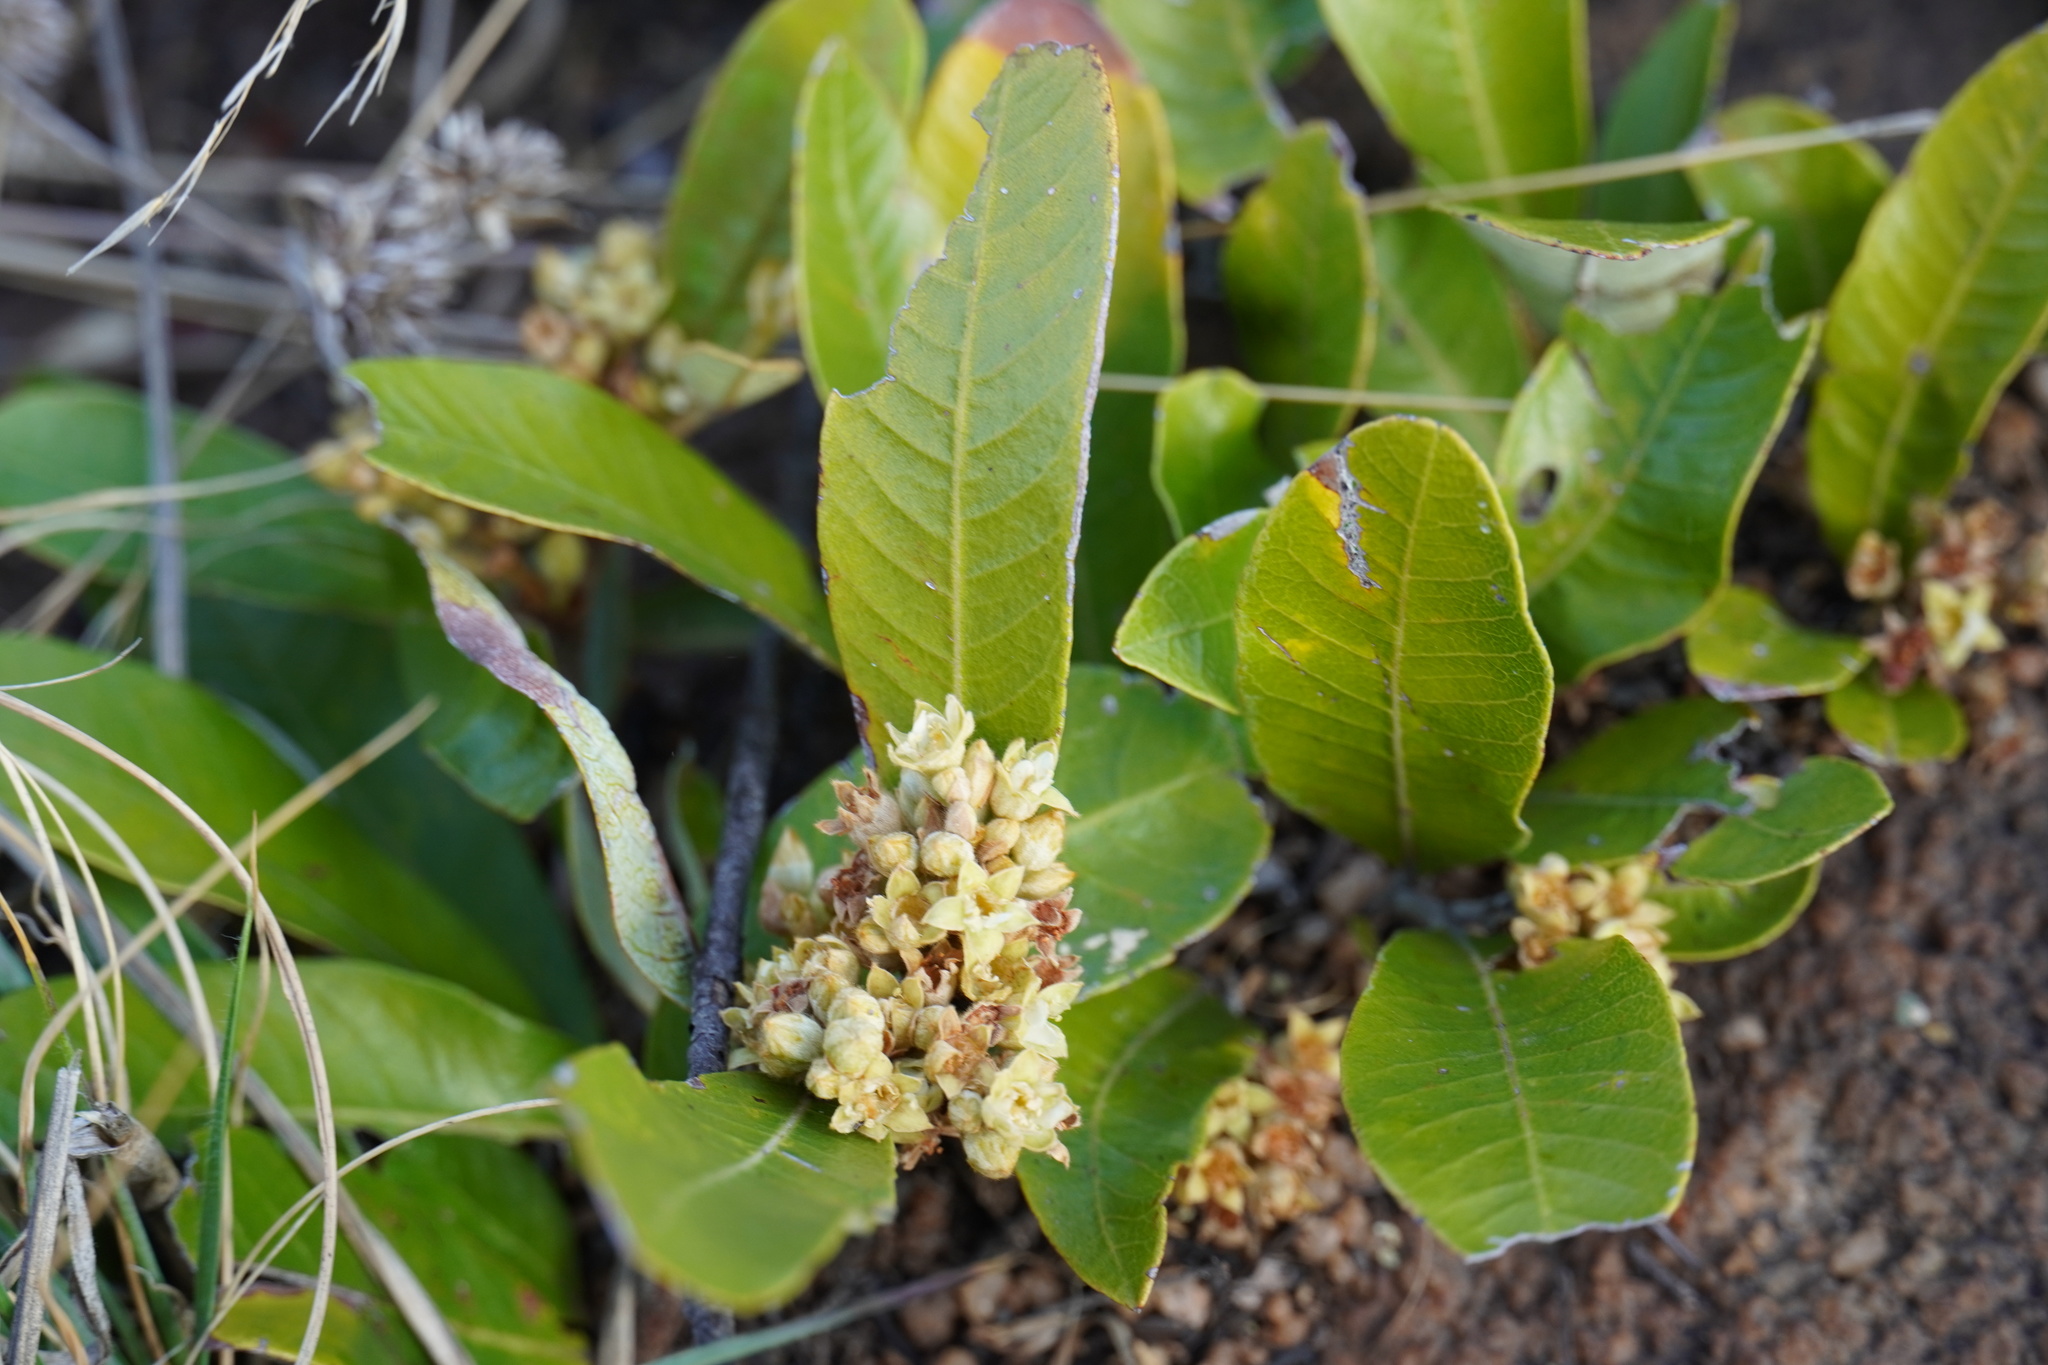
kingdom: Plantae
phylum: Tracheophyta
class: Magnoliopsida
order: Malpighiales
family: Chrysobalanaceae
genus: Parinari
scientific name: Parinari capensis
